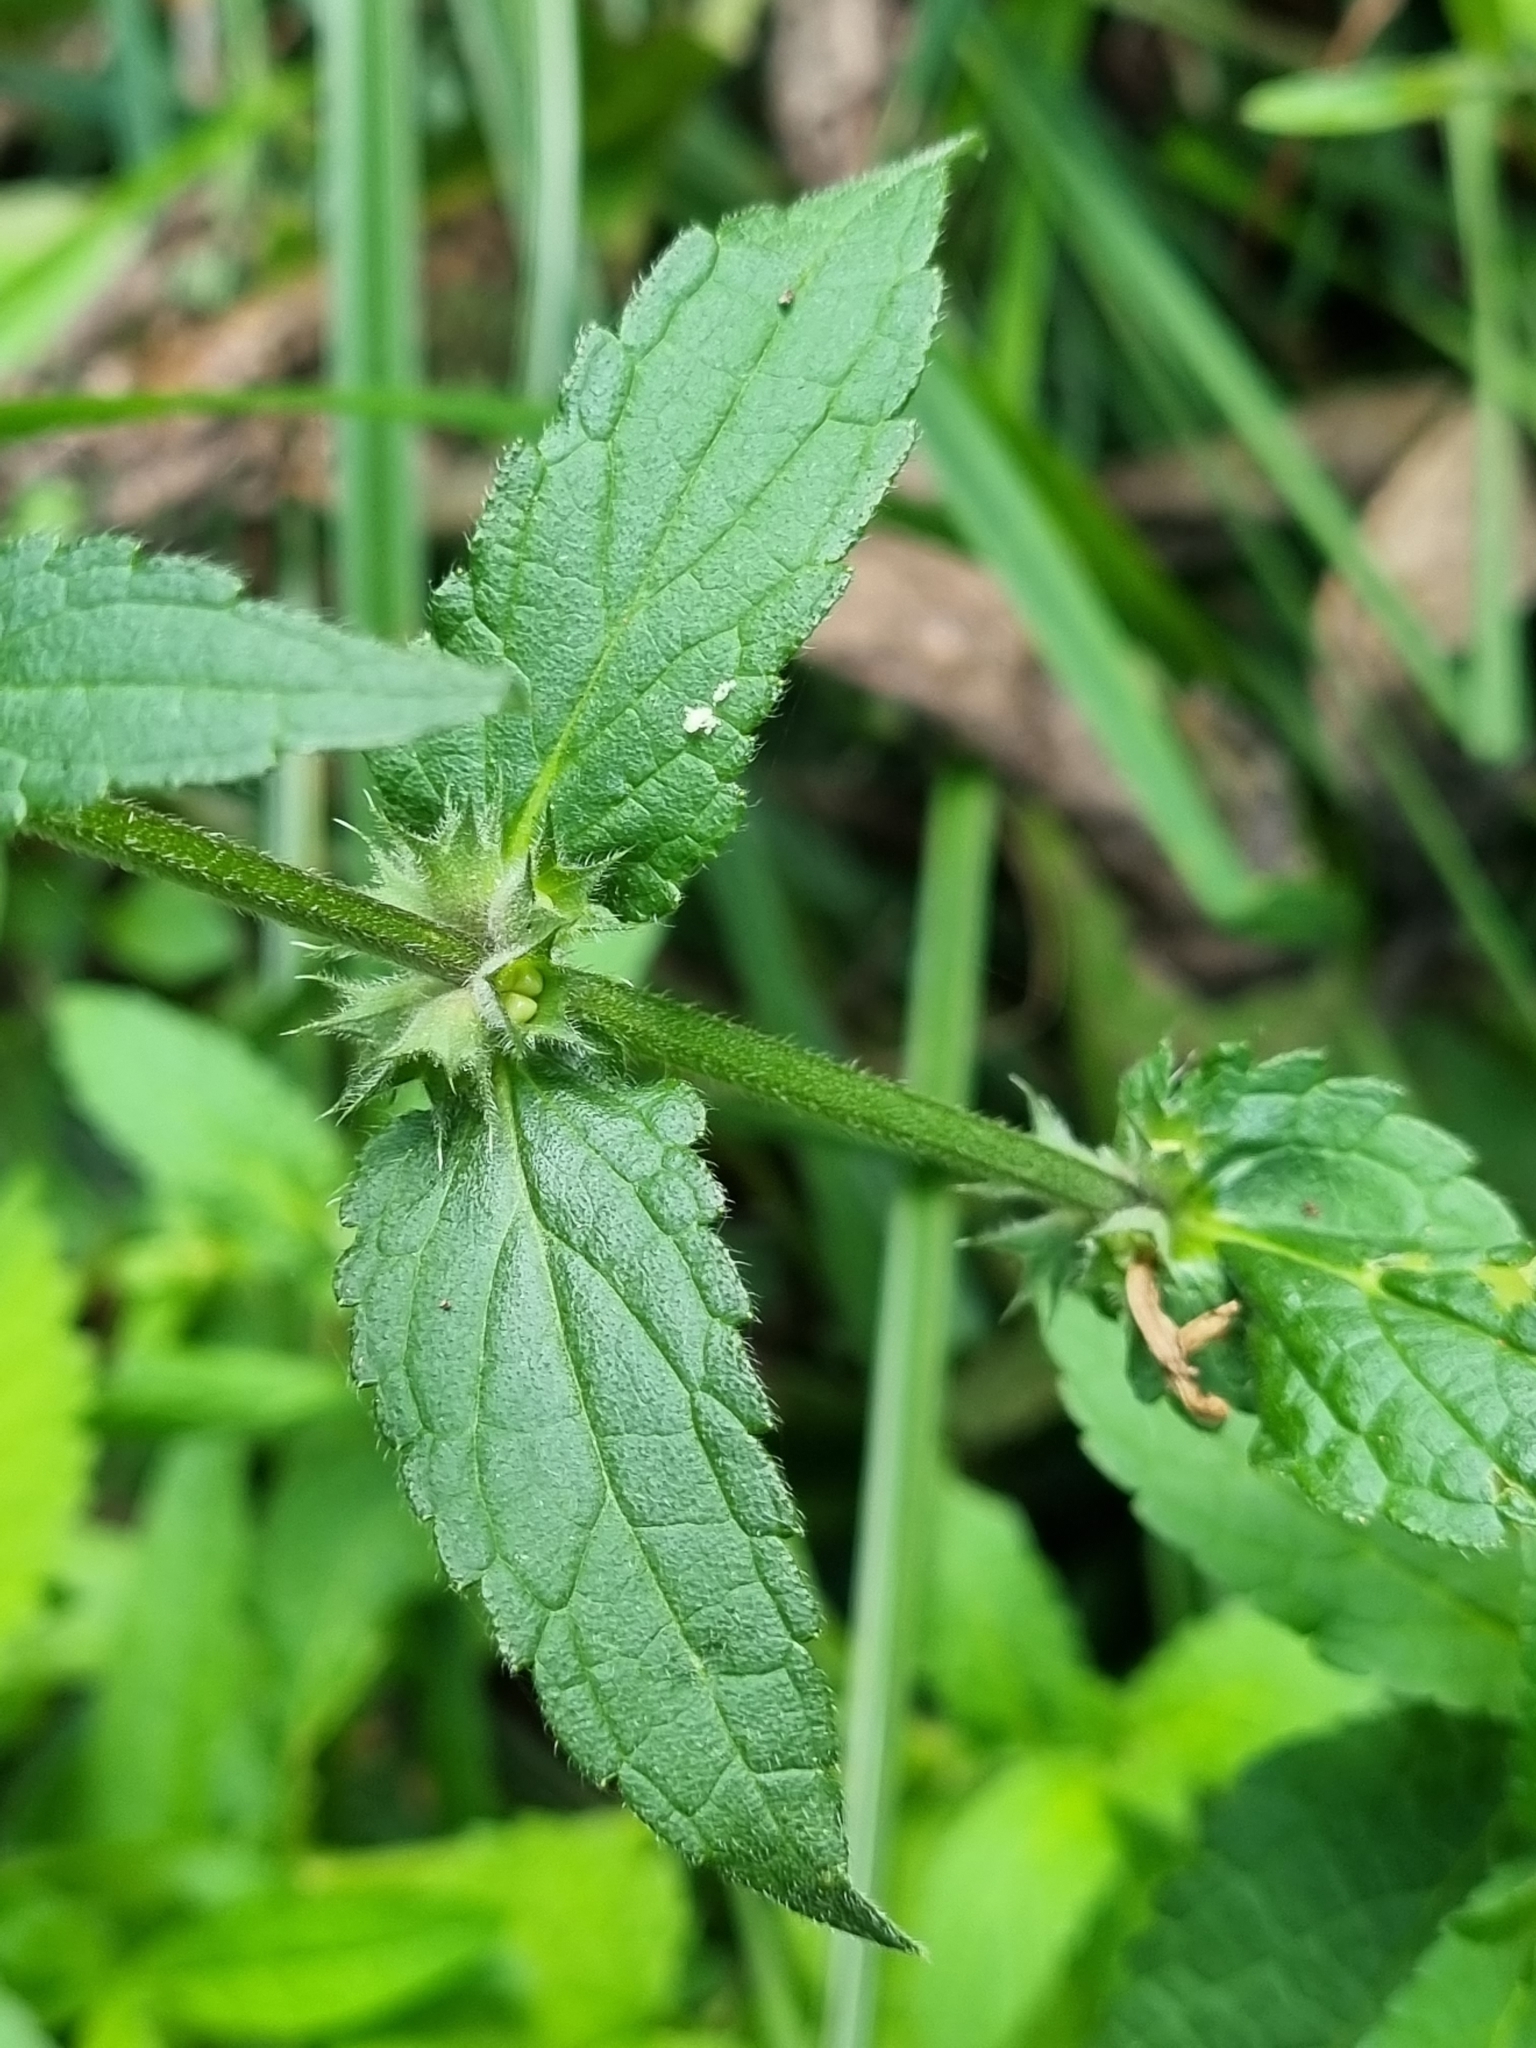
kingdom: Plantae
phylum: Tracheophyta
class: Magnoliopsida
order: Lamiales
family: Lamiaceae
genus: Stachys
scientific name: Stachys palustris
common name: Marsh woundwort
